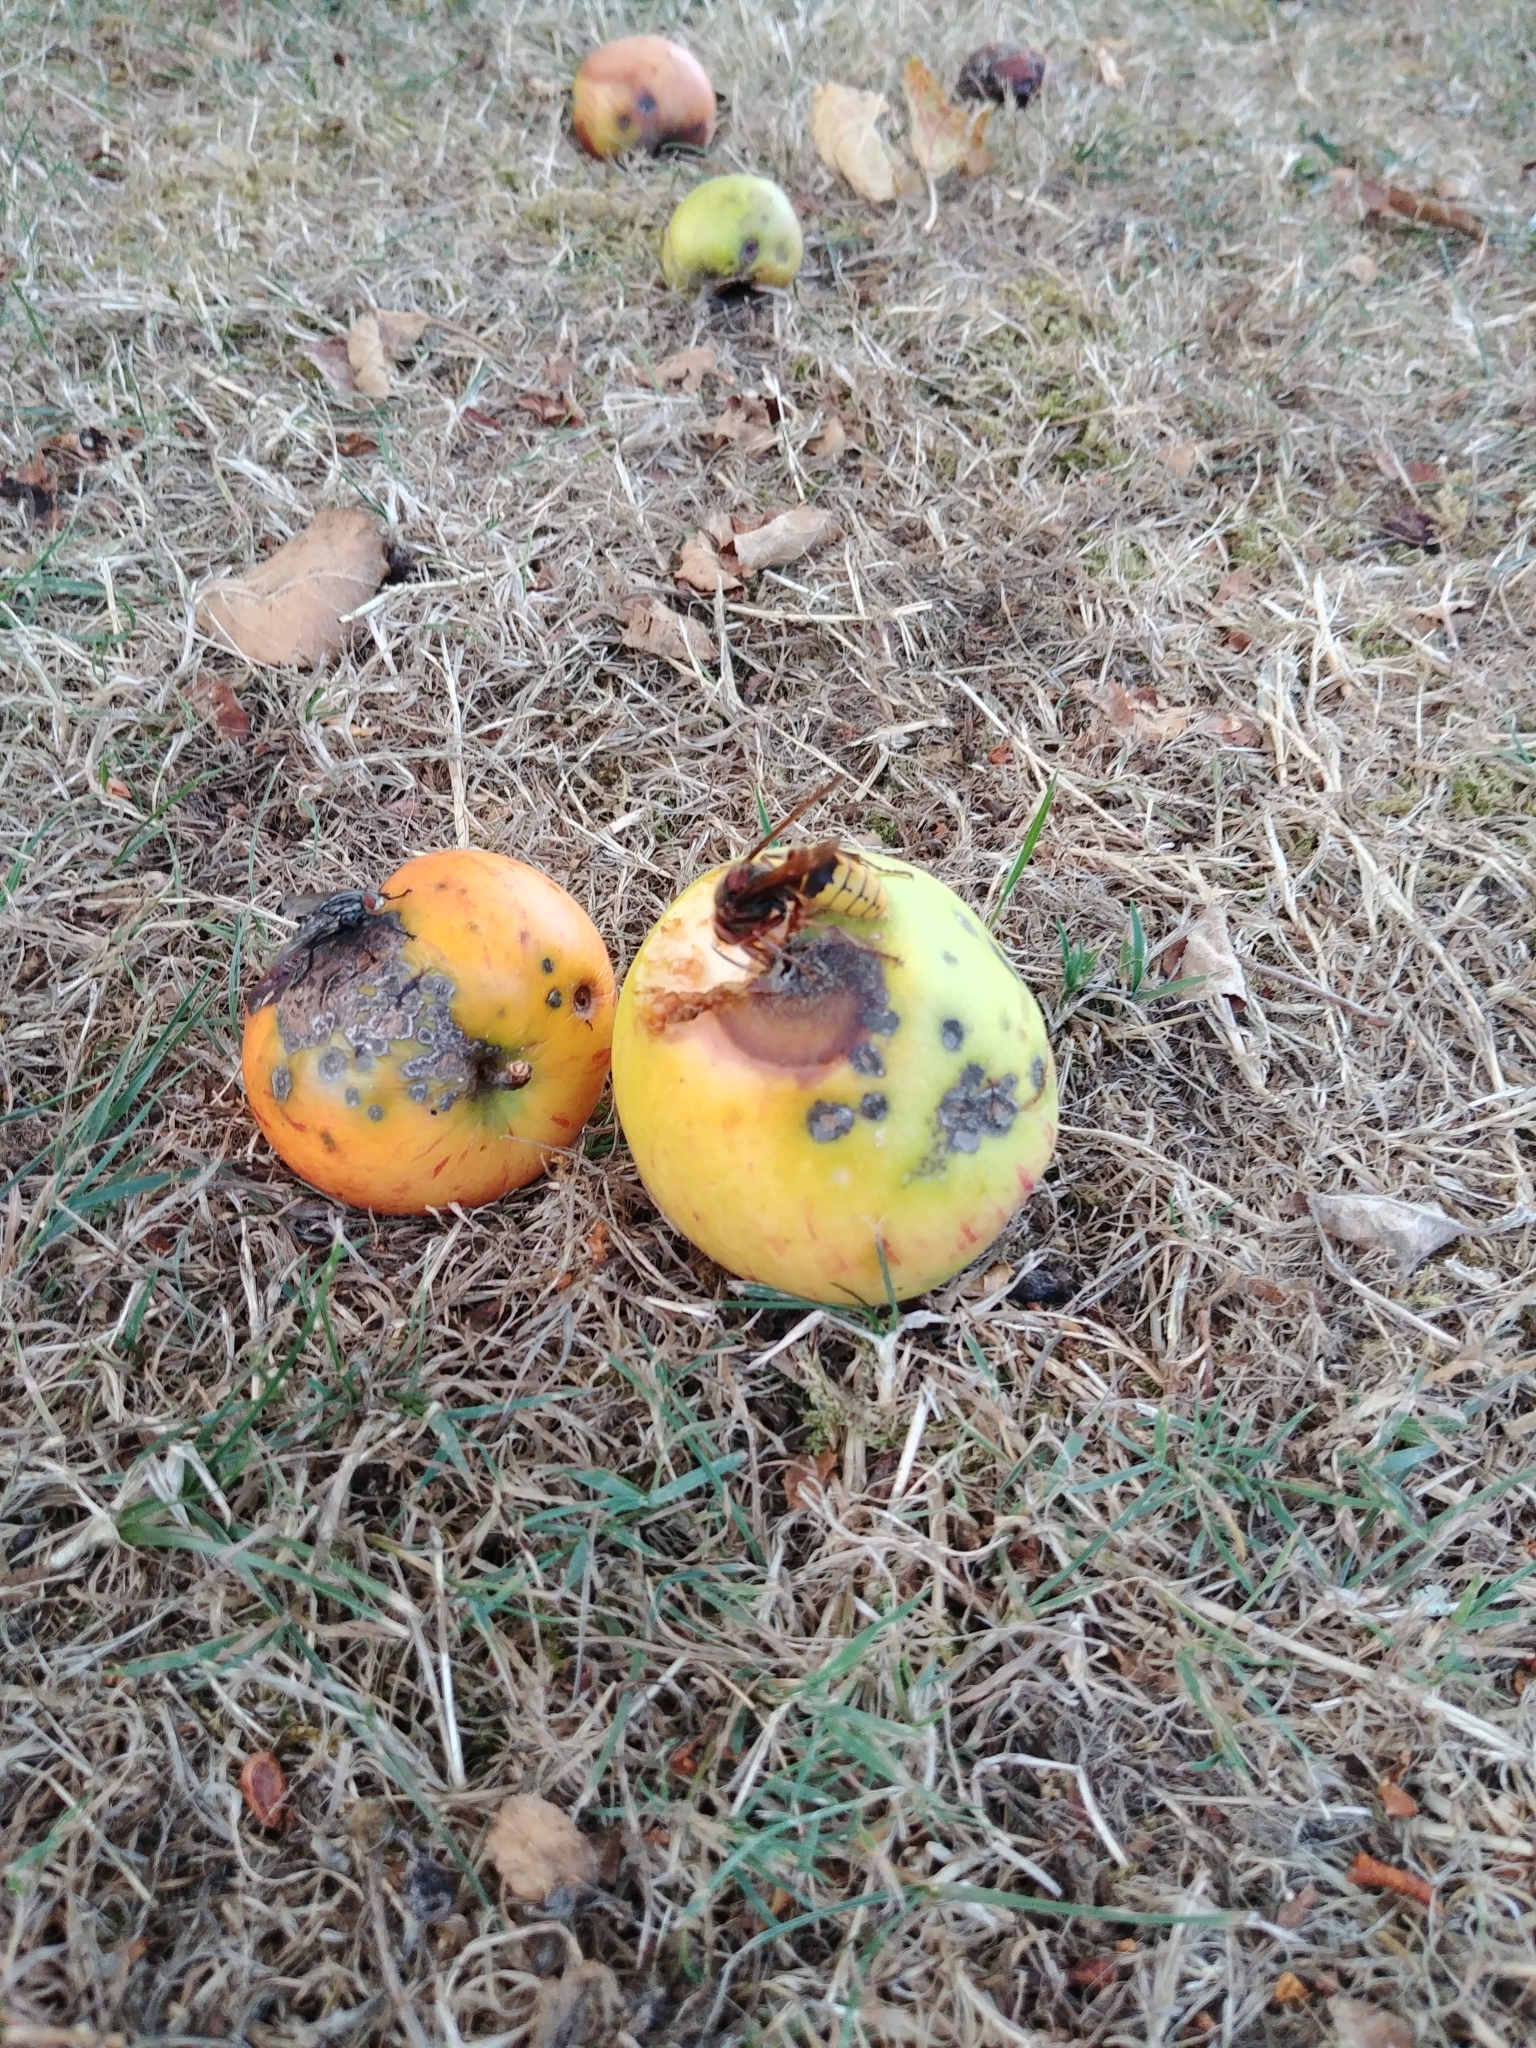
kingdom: Animalia
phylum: Arthropoda
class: Insecta
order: Hymenoptera
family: Vespidae
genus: Vespa
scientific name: Vespa crabro
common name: Hornet
